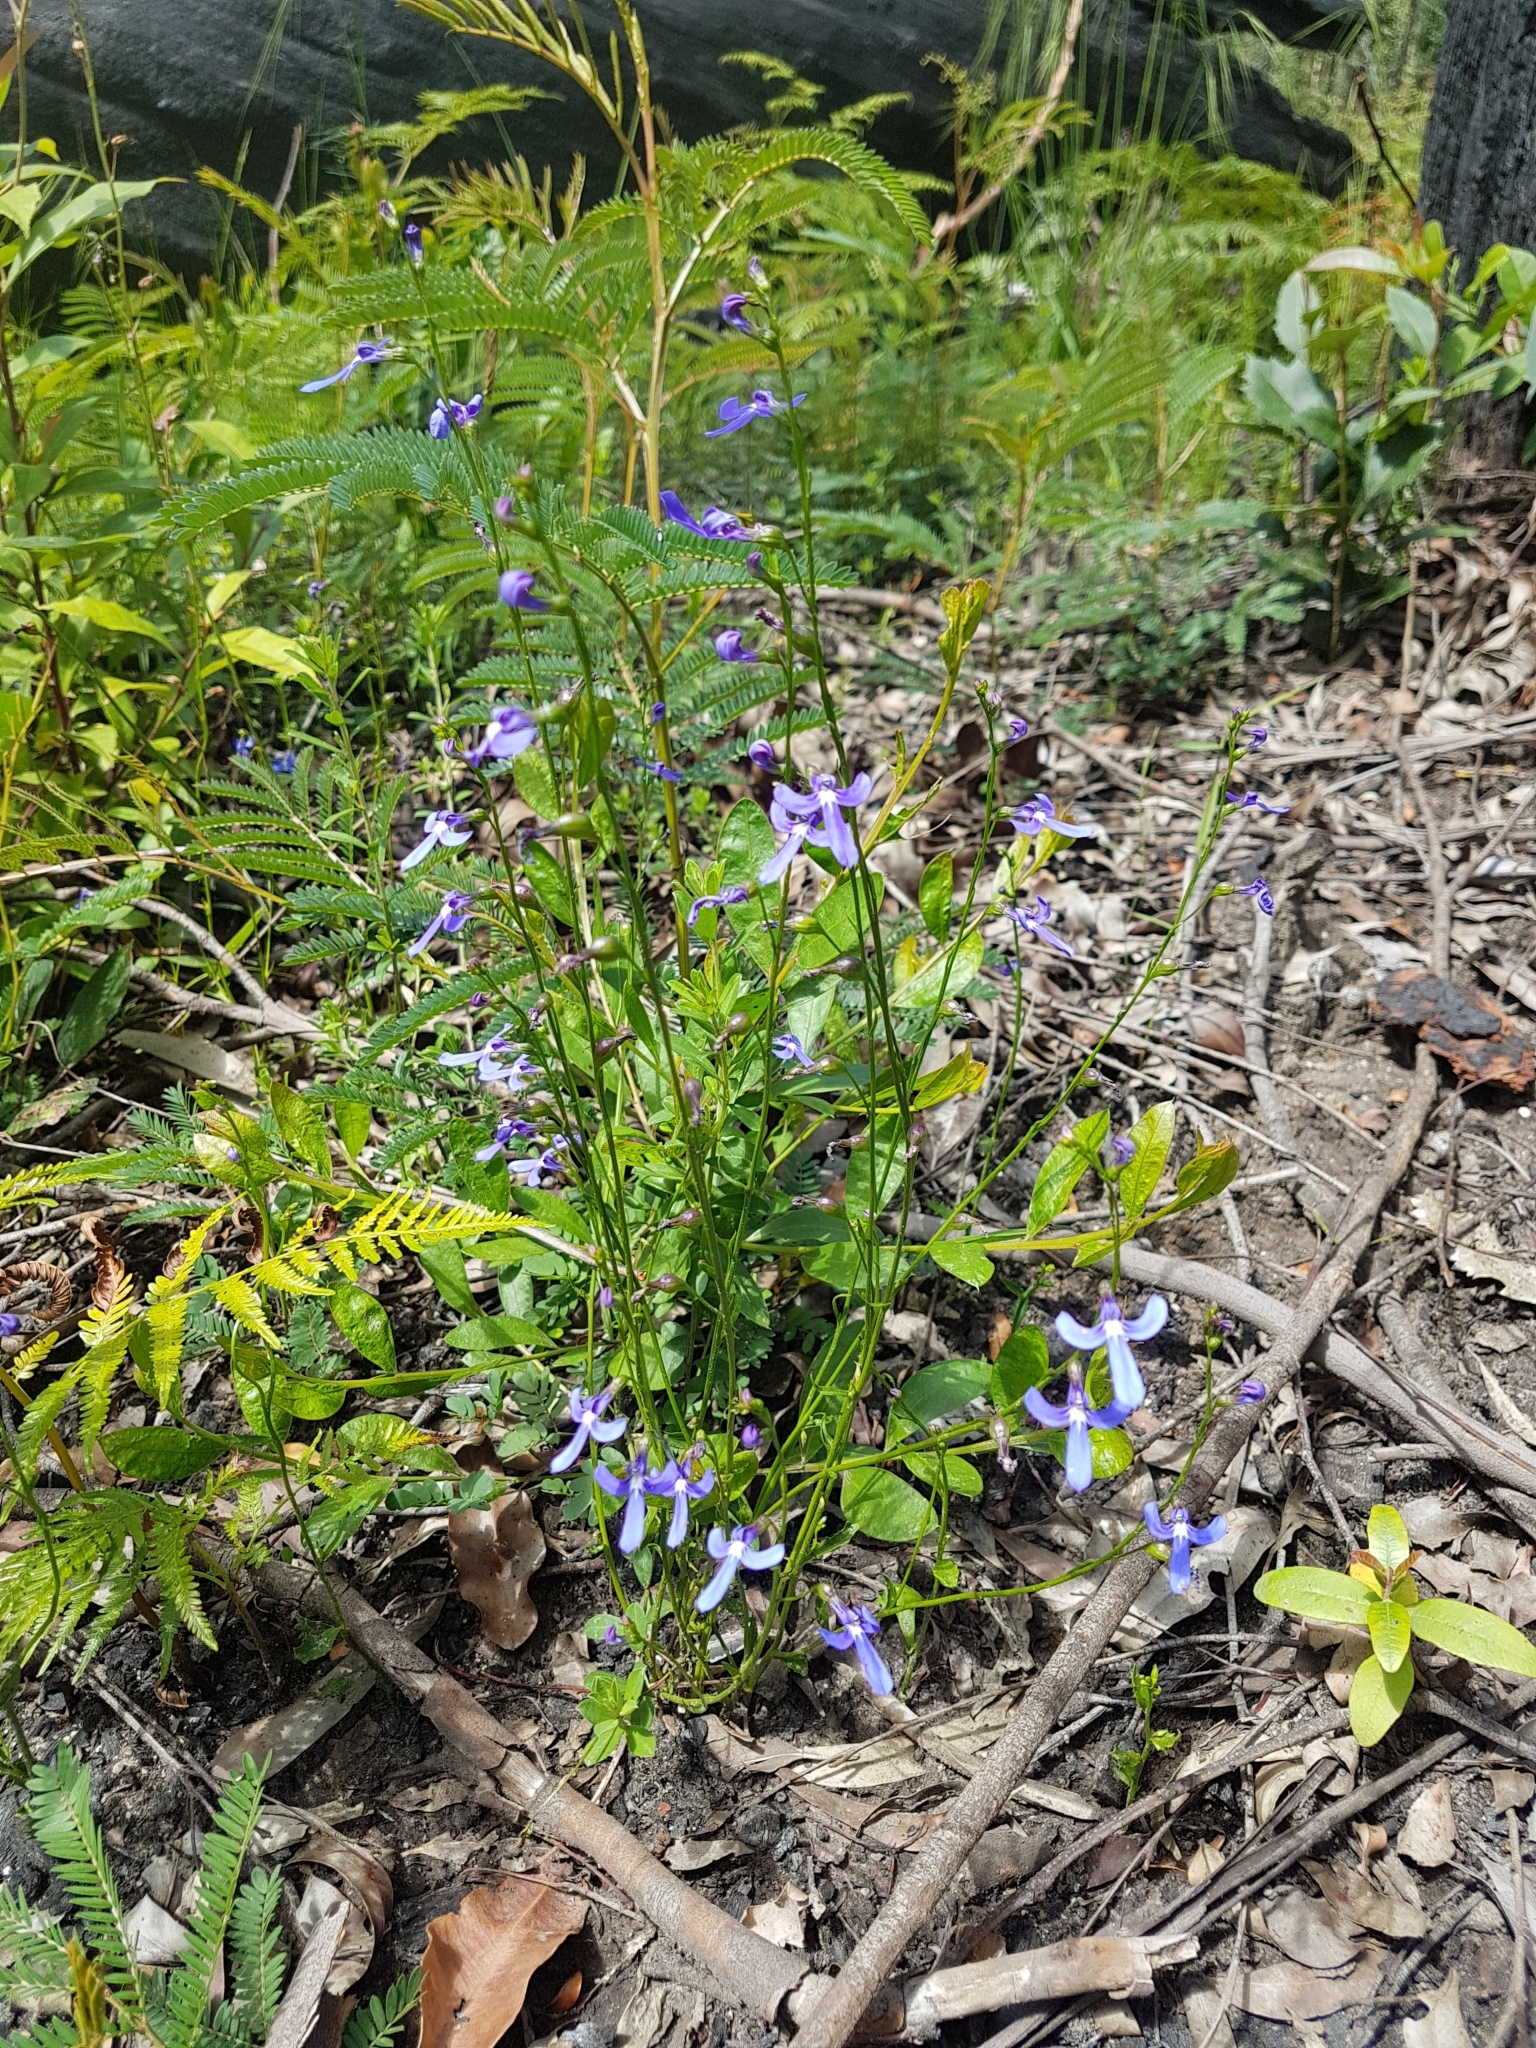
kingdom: Plantae
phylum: Tracheophyta
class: Magnoliopsida
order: Asterales
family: Campanulaceae
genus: Lobelia
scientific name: Lobelia dentata
